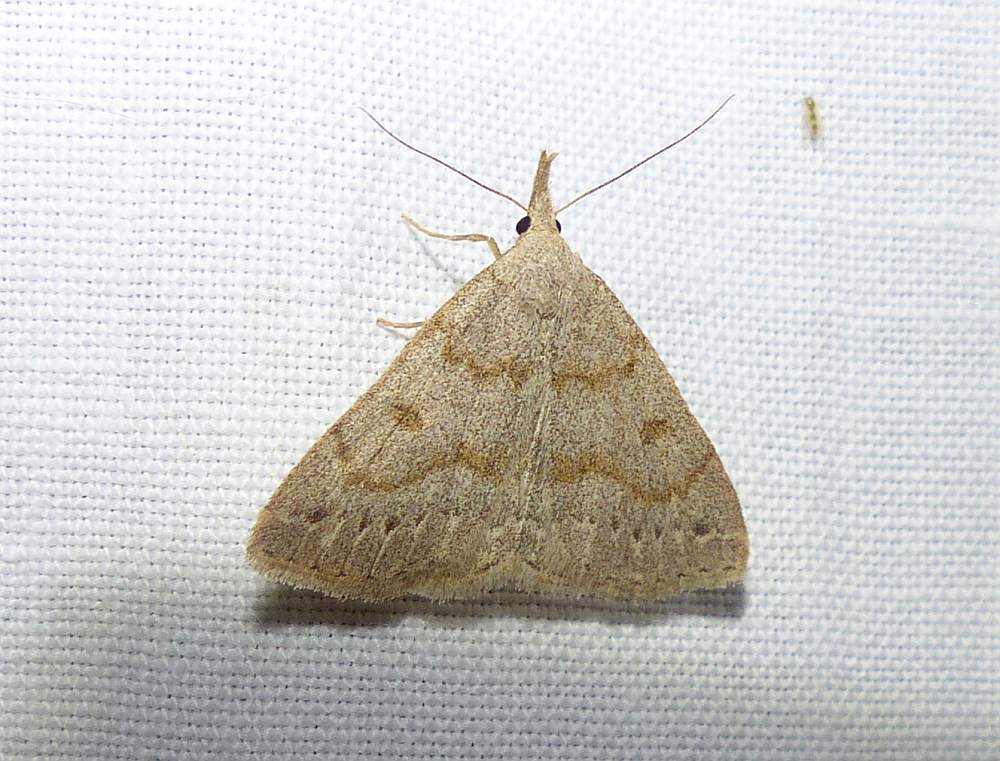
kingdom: Animalia
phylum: Arthropoda
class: Insecta
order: Lepidoptera
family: Erebidae
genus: Macrochilo
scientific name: Macrochilo morbidalis
